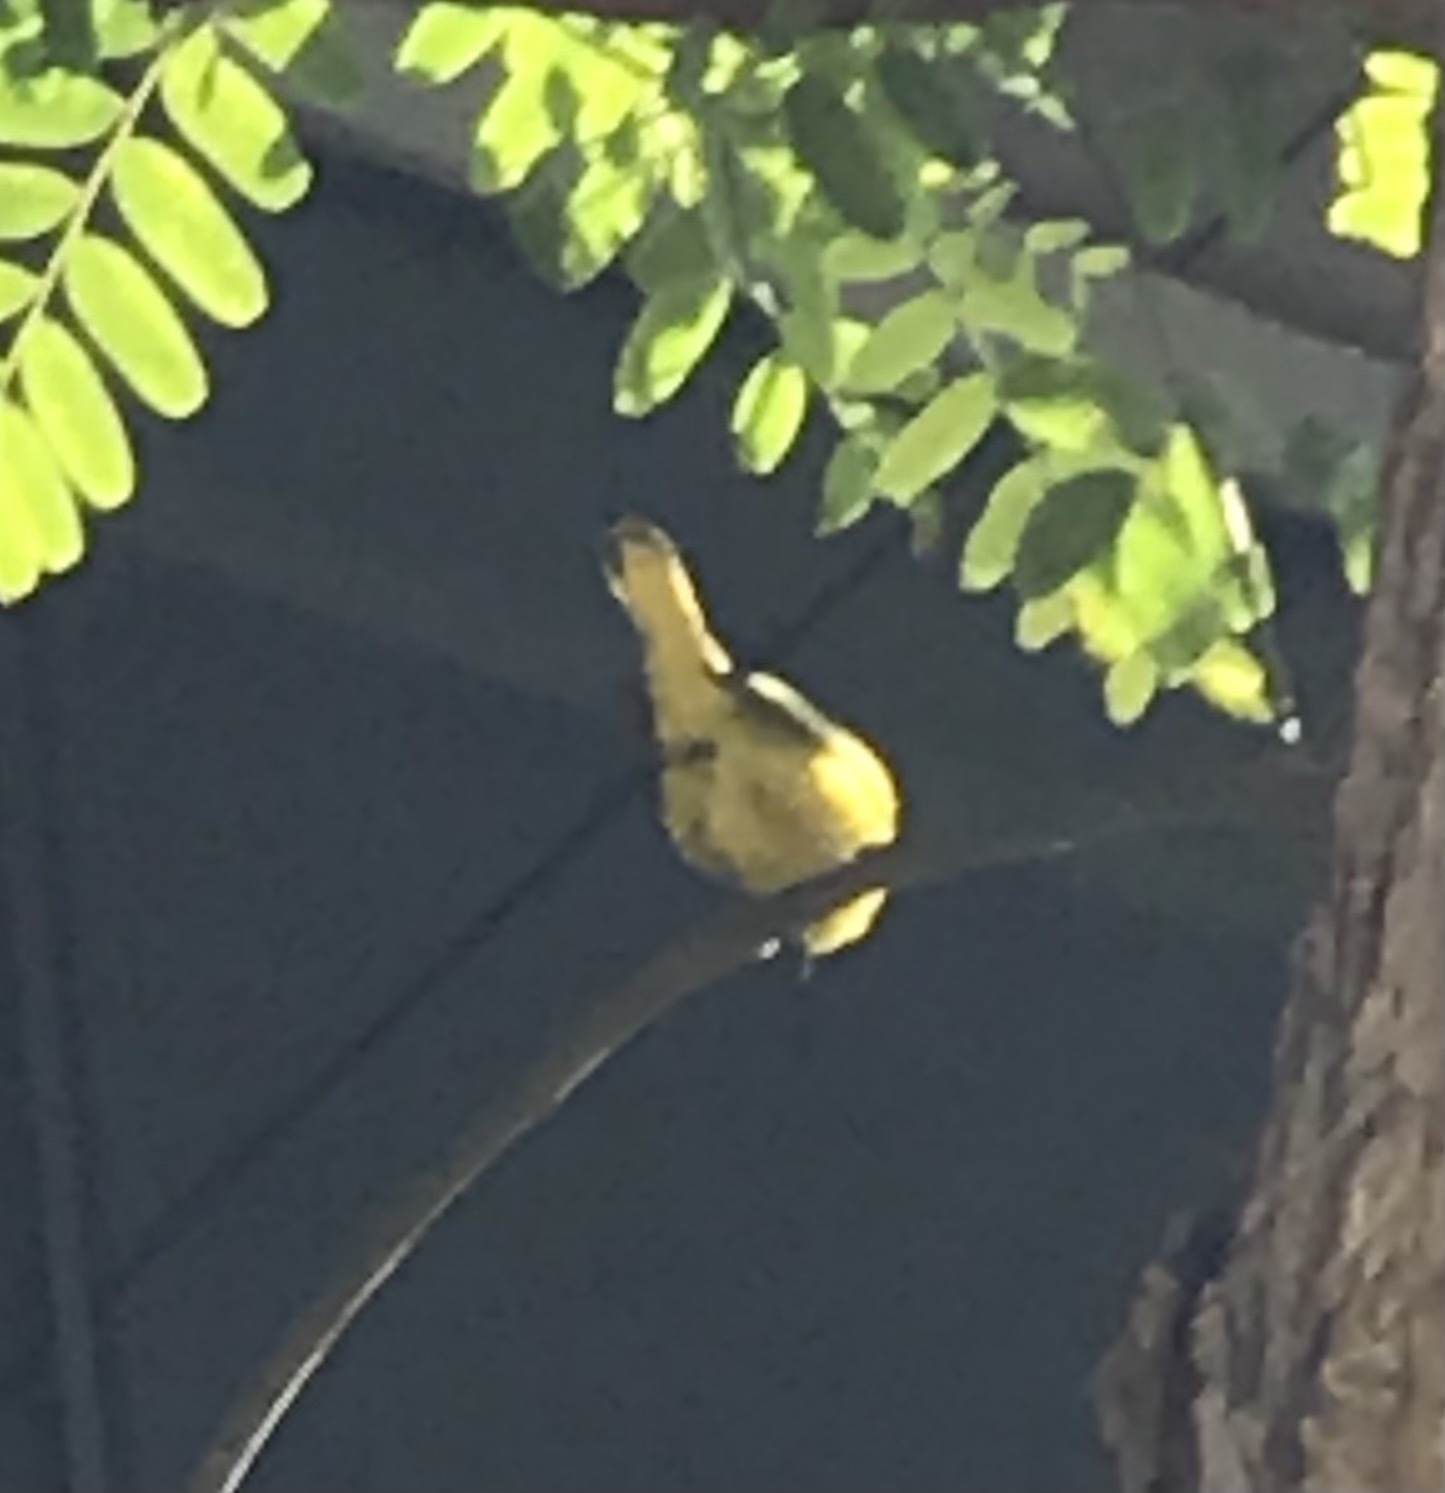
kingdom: Animalia
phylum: Chordata
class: Aves
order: Passeriformes
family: Parulidae
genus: Cardellina
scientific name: Cardellina pusilla
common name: Wilson's warbler
